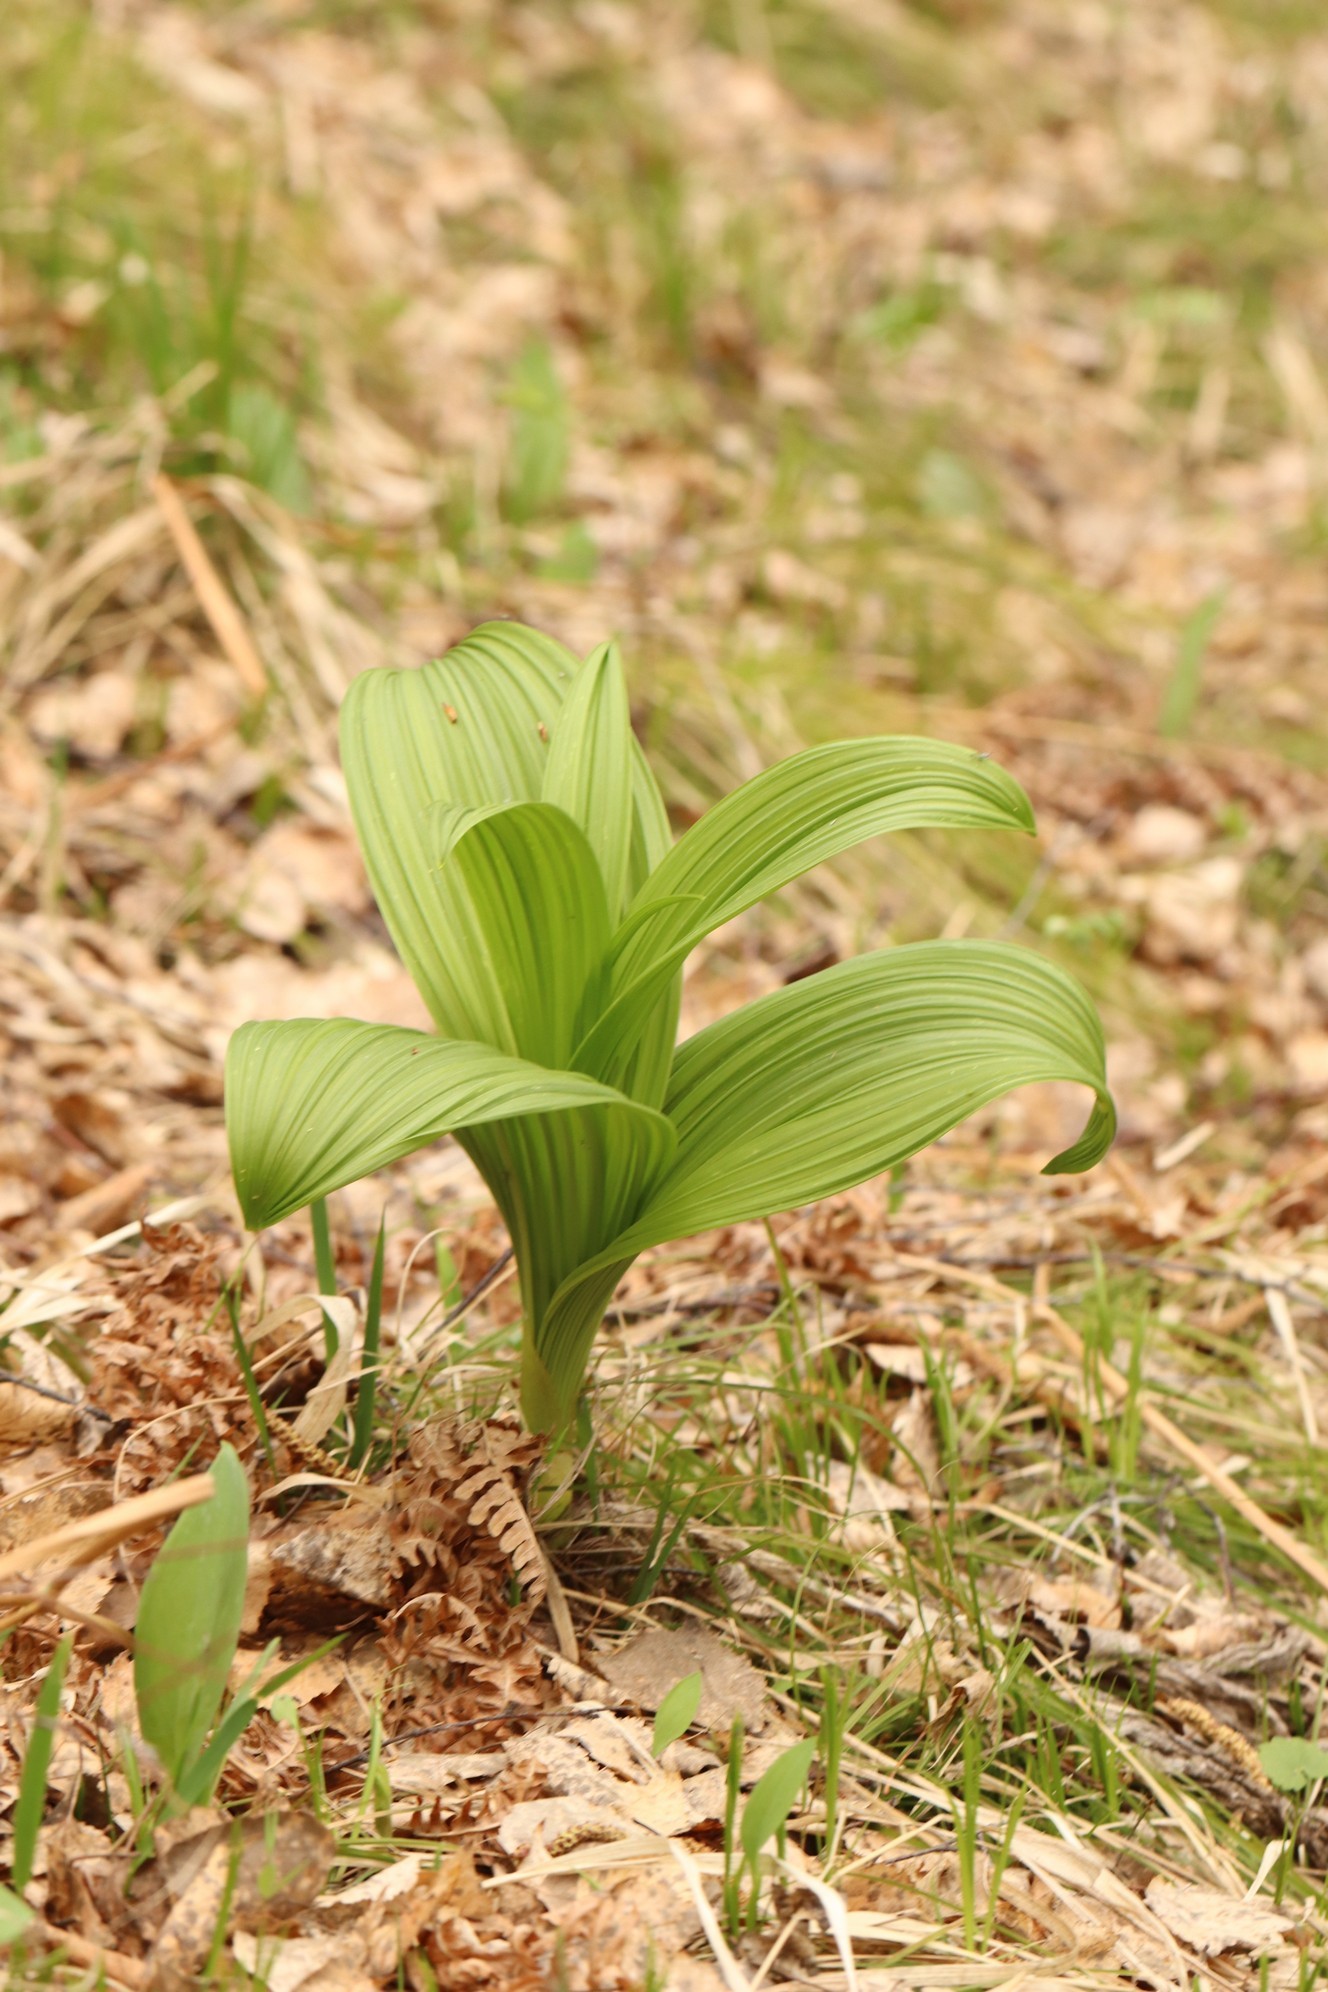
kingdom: Plantae
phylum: Tracheophyta
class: Liliopsida
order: Liliales
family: Melanthiaceae
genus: Veratrum
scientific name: Veratrum nigrum
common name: Black veratrum
